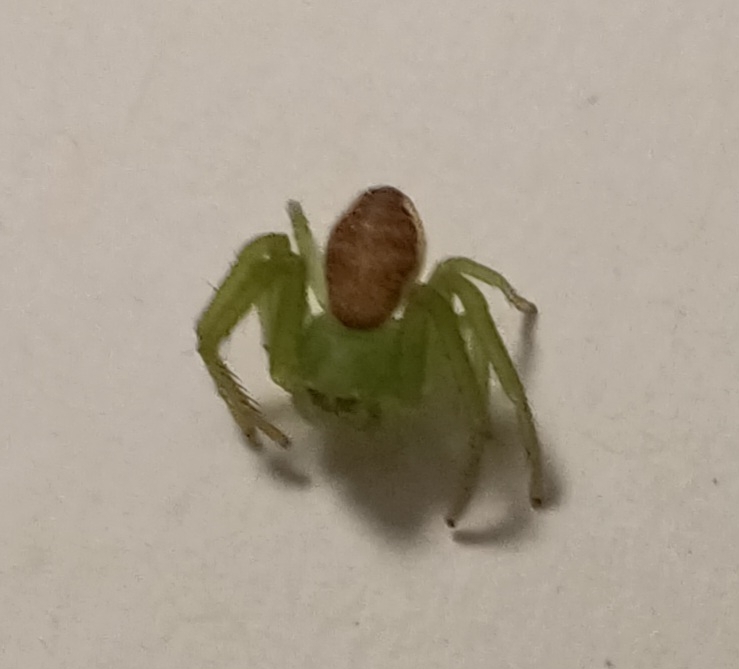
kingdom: Animalia
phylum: Arthropoda
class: Arachnida
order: Araneae
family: Thomisidae
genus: Diaea
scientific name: Diaea dorsata
